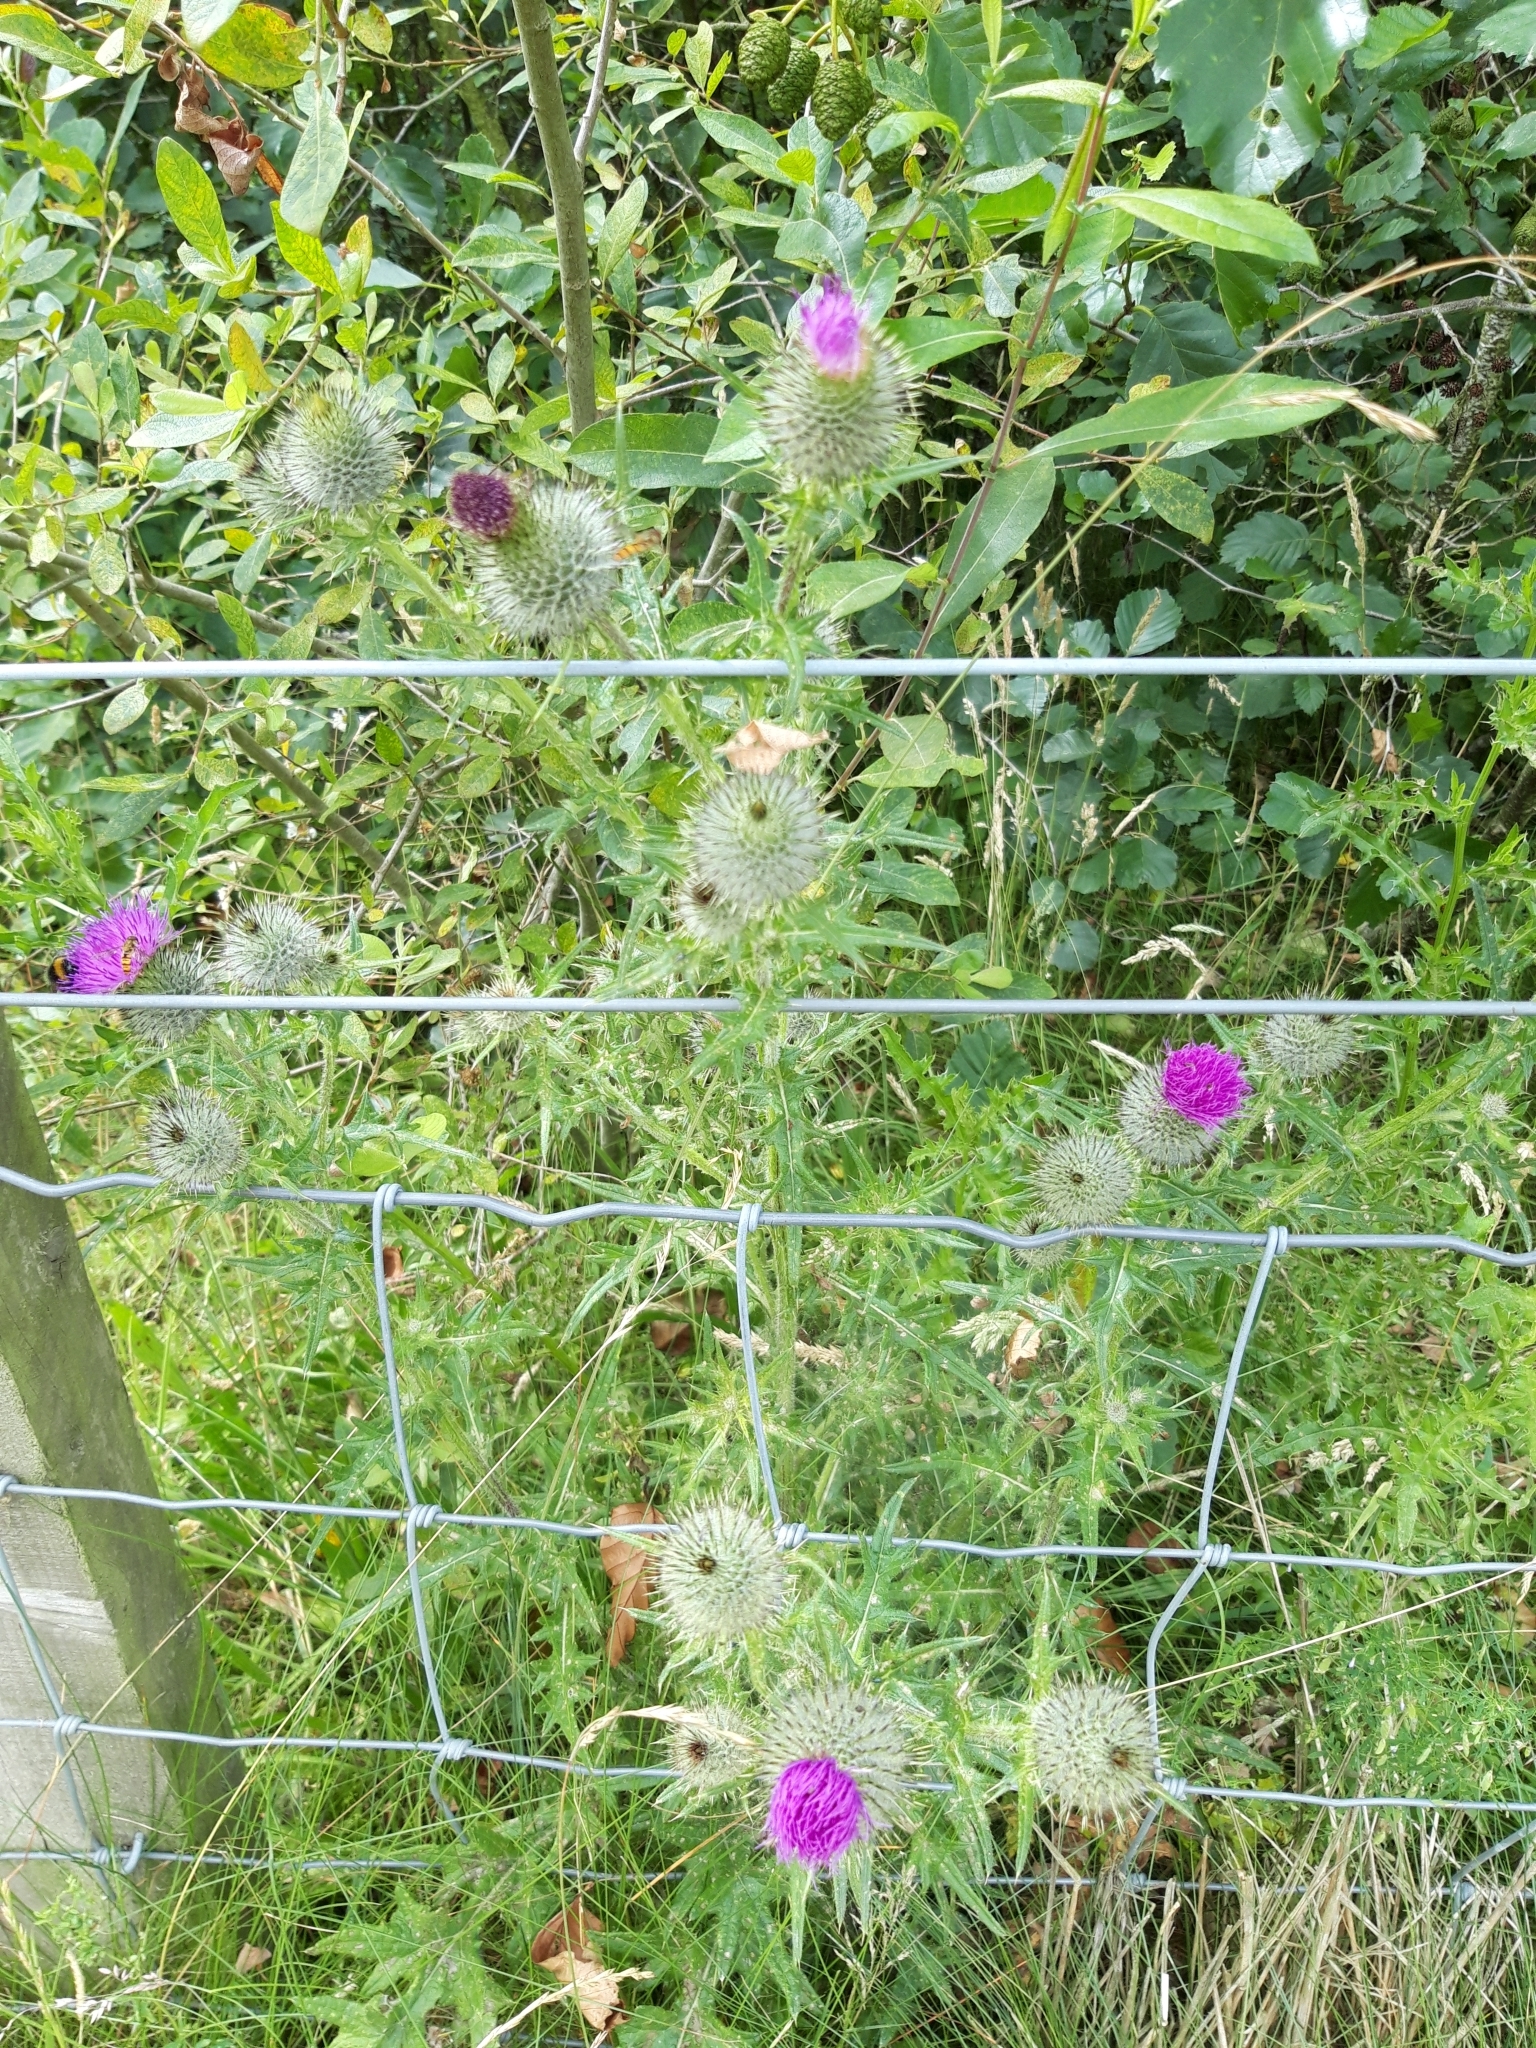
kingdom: Plantae
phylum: Tracheophyta
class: Magnoliopsida
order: Asterales
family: Asteraceae
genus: Cirsium
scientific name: Cirsium vulgare
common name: Bull thistle
